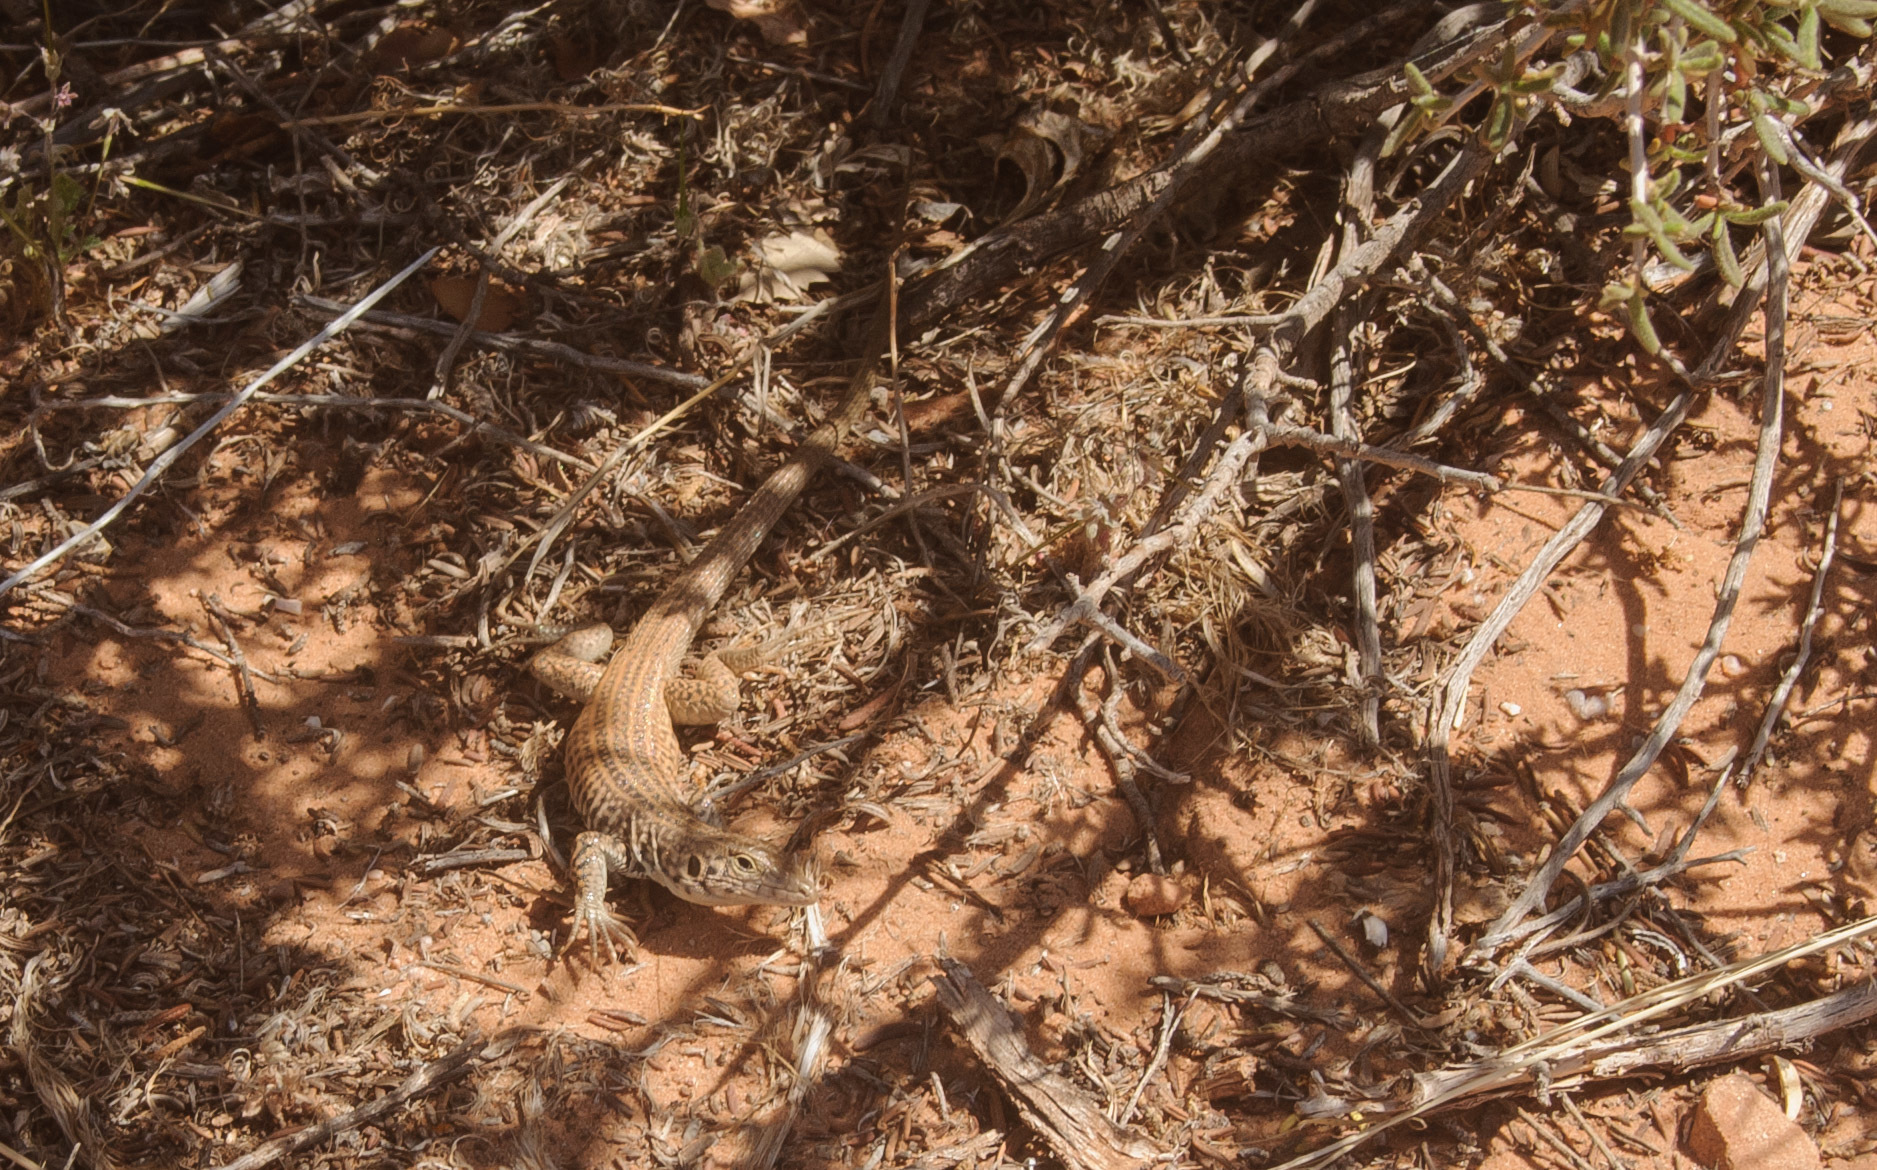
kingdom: Animalia
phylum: Chordata
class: Squamata
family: Teiidae
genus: Aspidoscelis
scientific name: Aspidoscelis tigris
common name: Tiger whiptail
